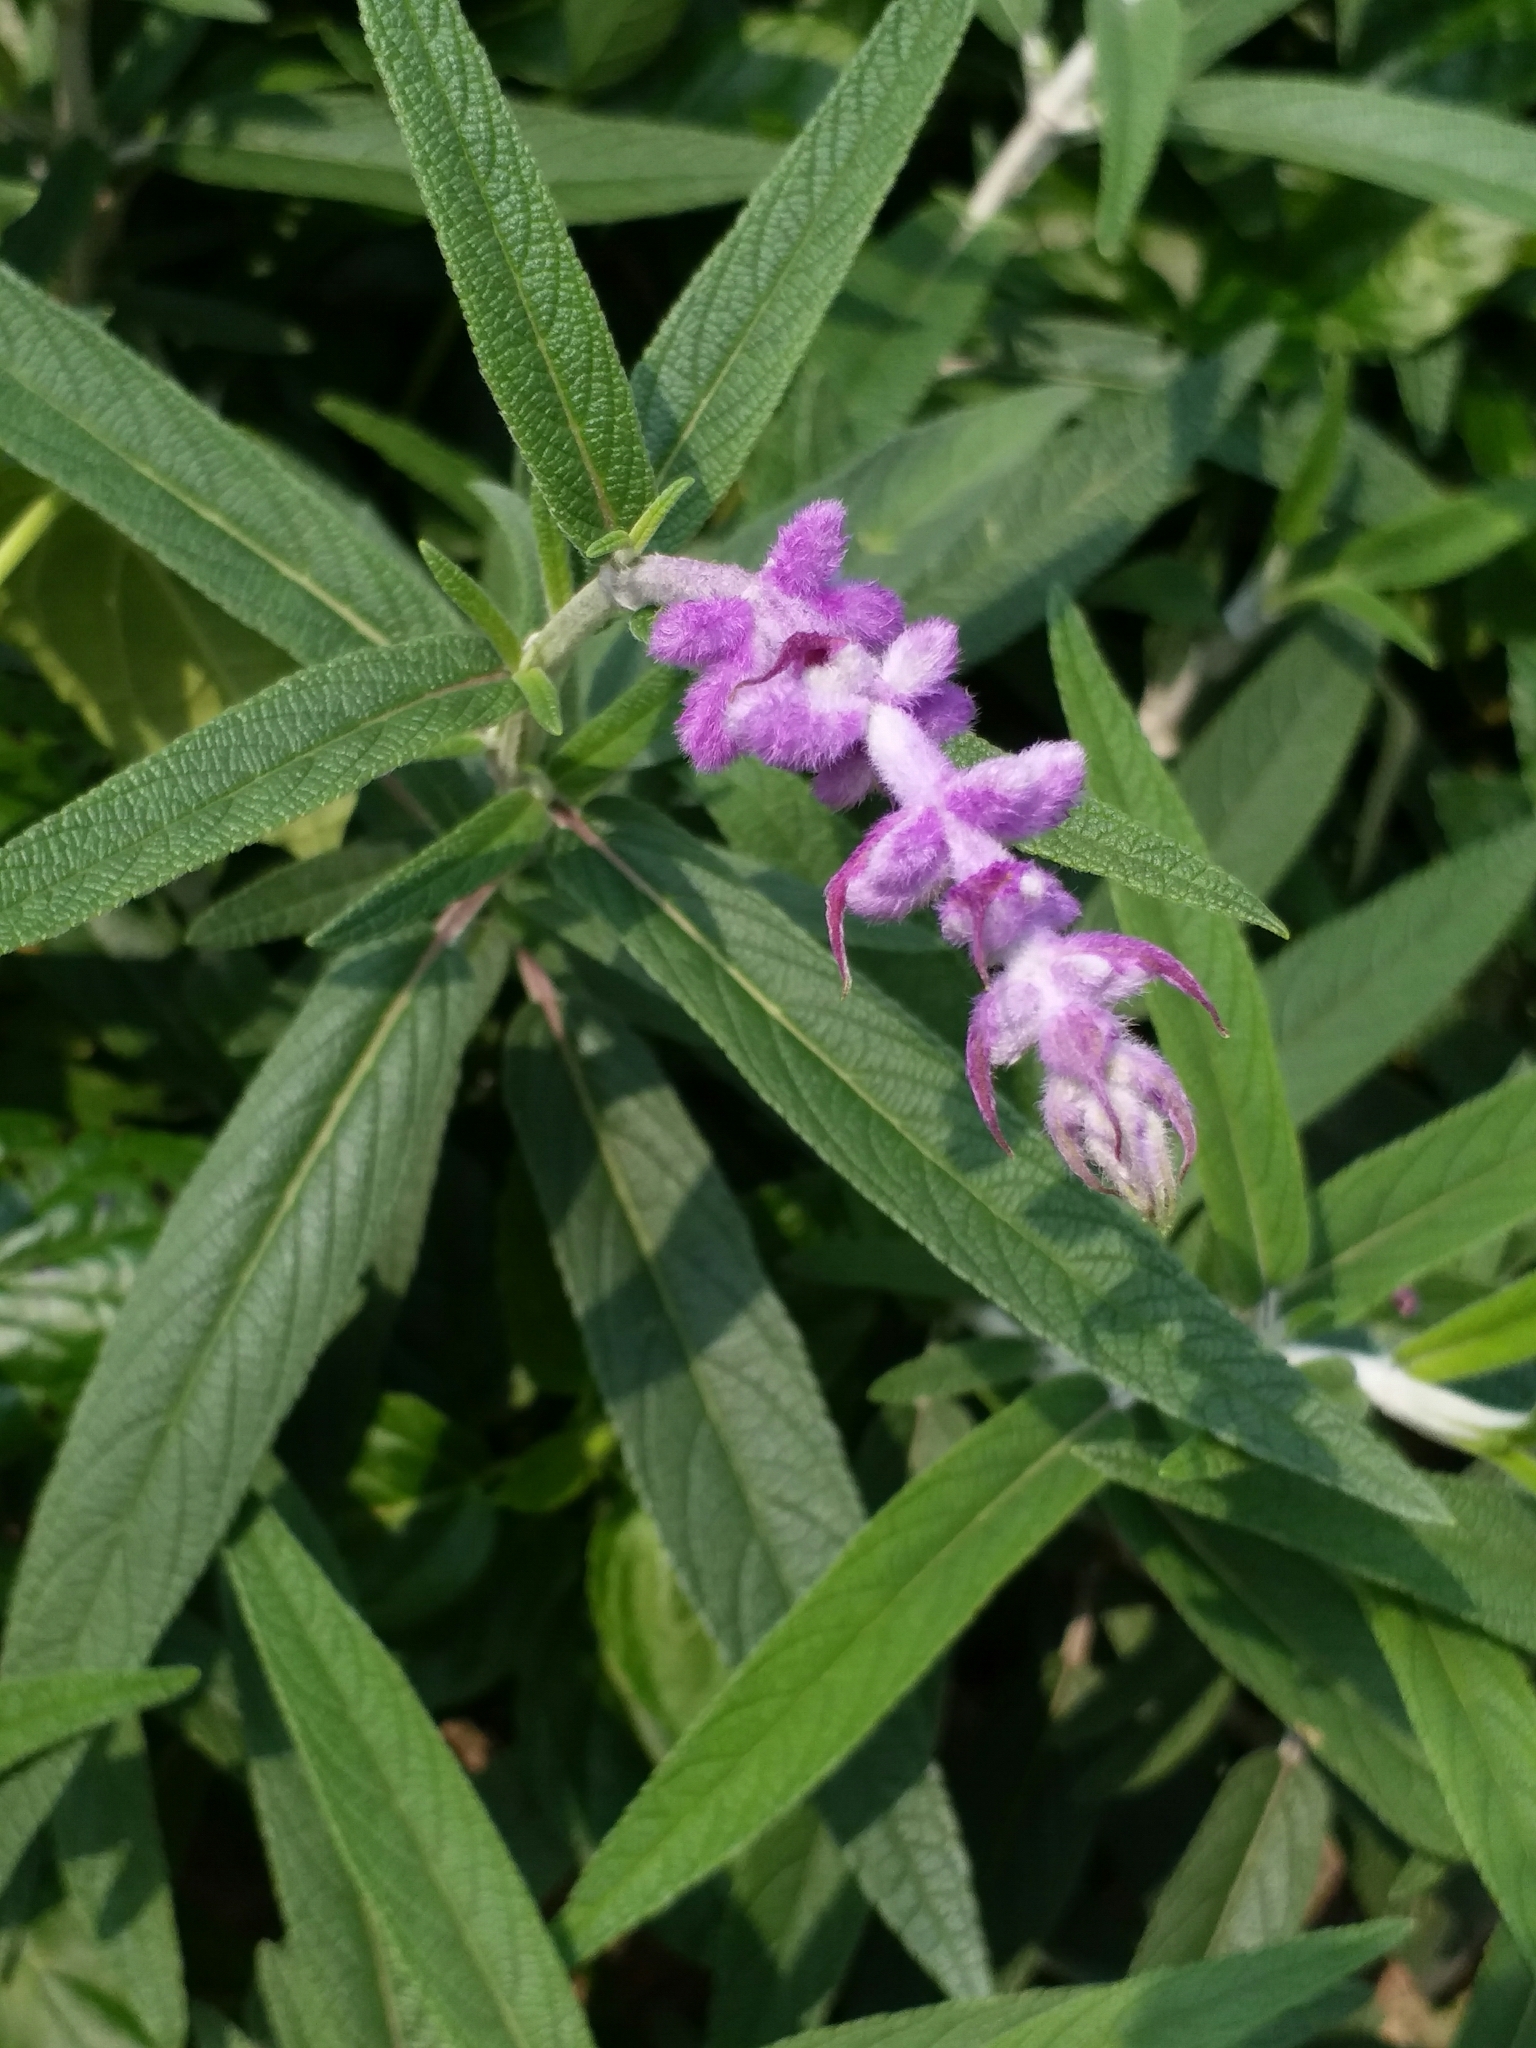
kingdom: Plantae
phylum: Tracheophyta
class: Magnoliopsida
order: Lamiales
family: Lamiaceae
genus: Salvia
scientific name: Salvia leucantha
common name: Mexican bush sage
